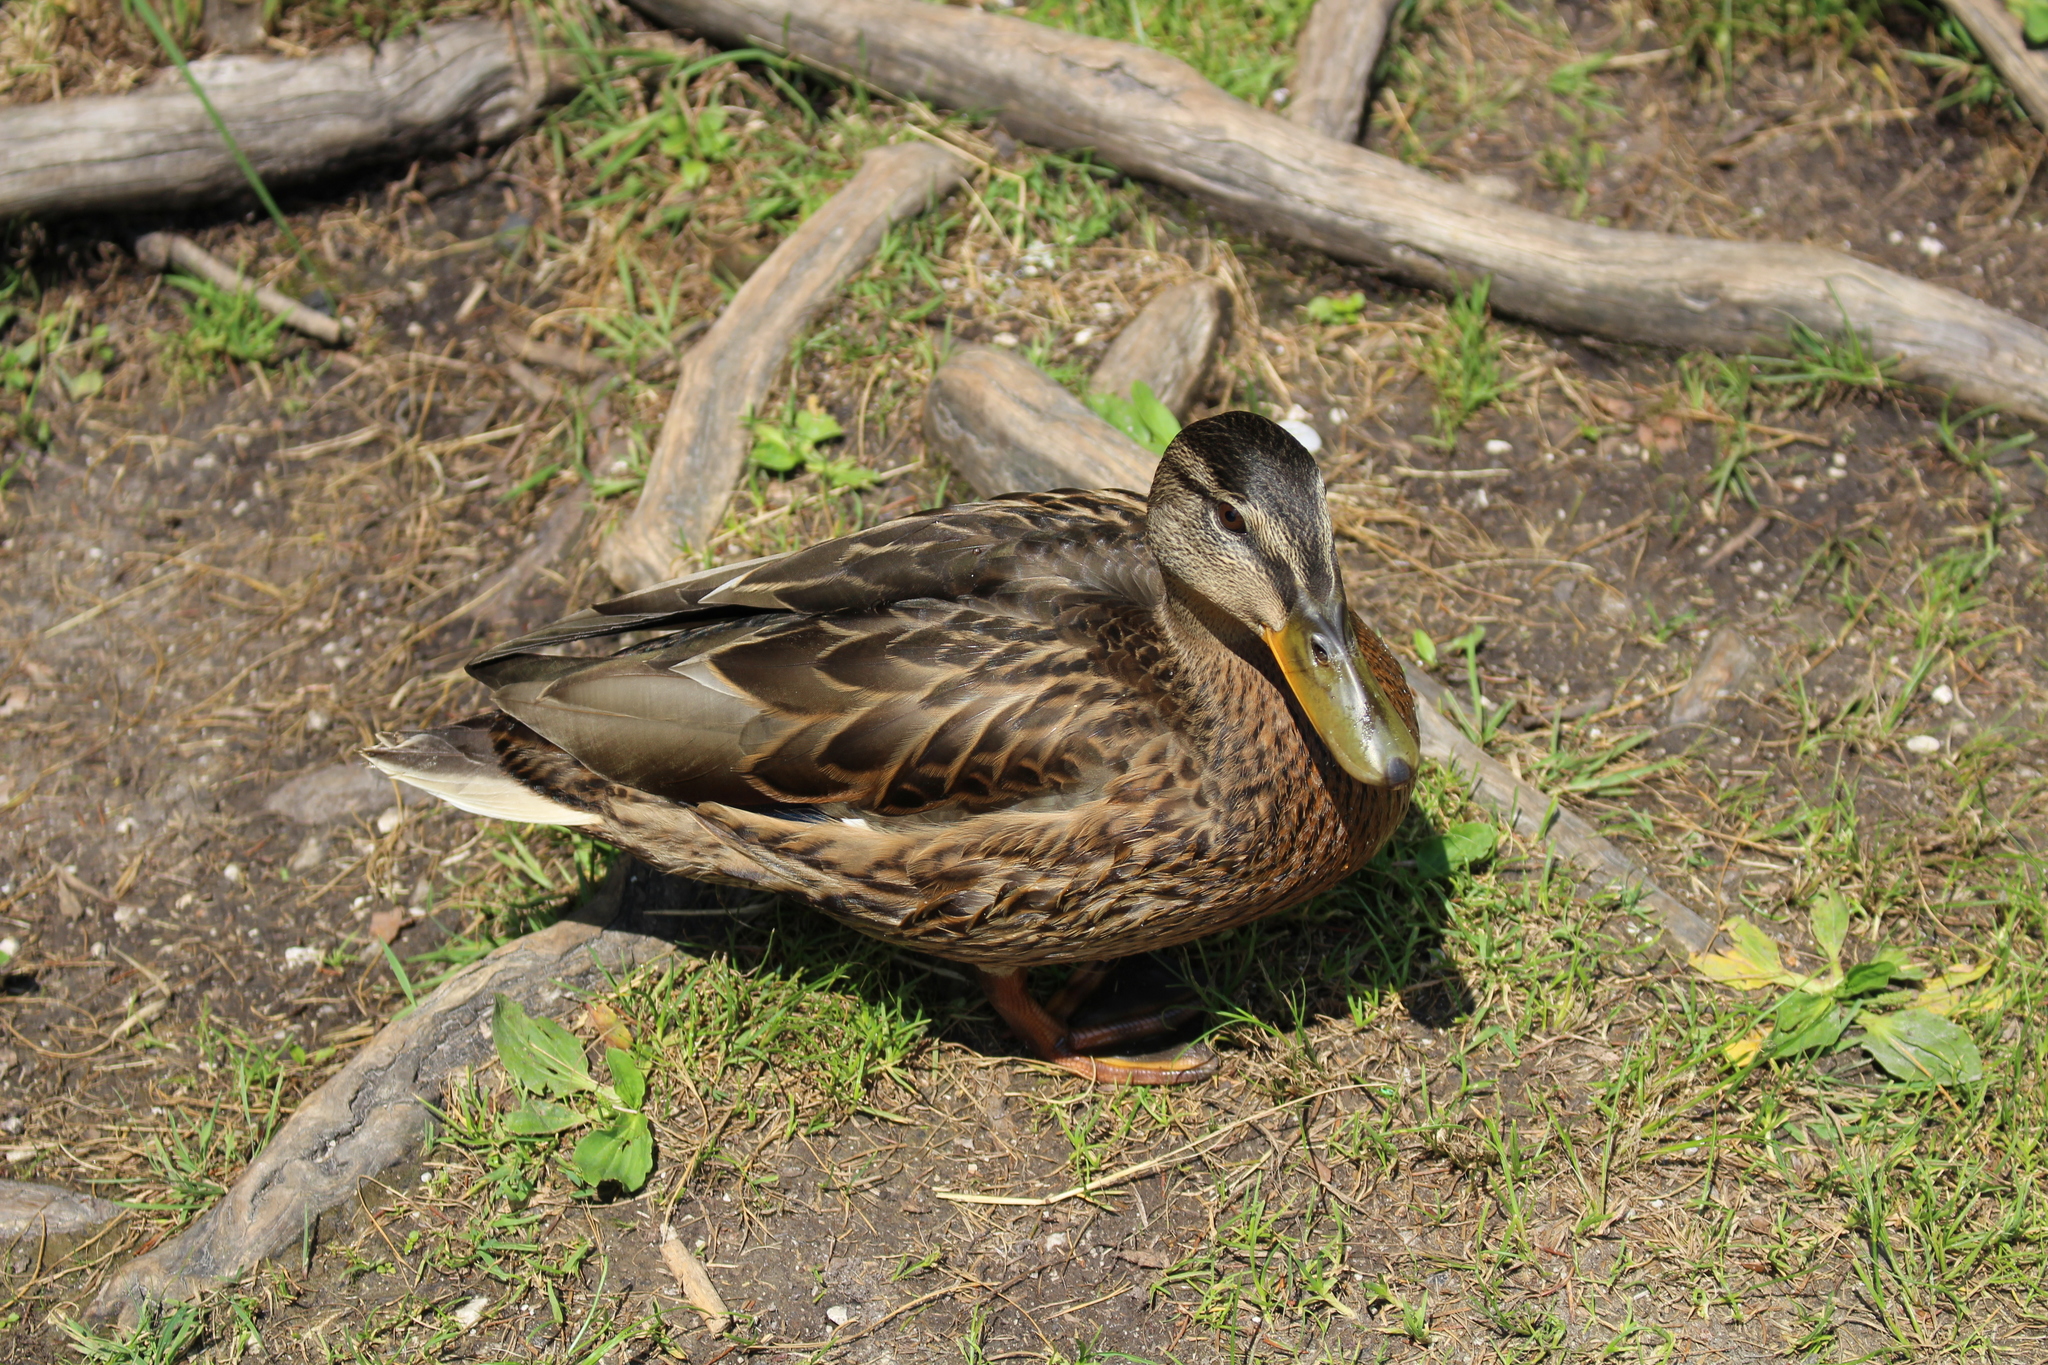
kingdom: Animalia
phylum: Chordata
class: Aves
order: Anseriformes
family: Anatidae
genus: Anas
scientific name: Anas platyrhynchos
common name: Mallard
